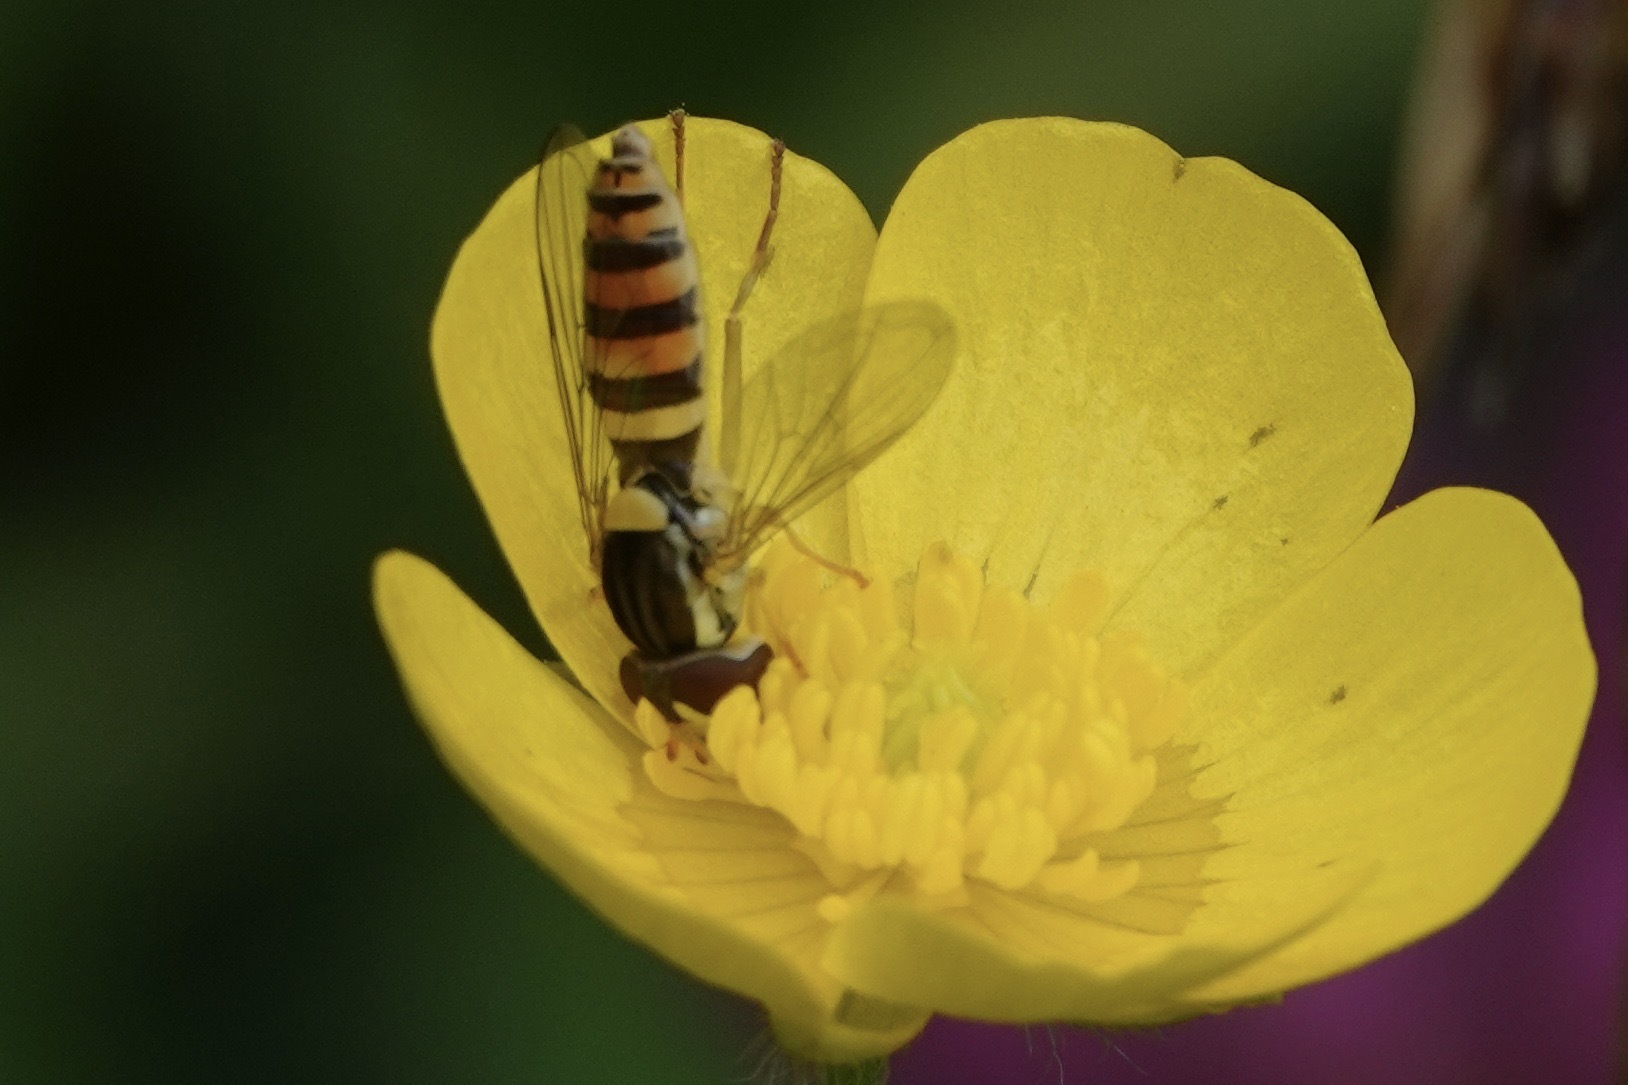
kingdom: Animalia
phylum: Arthropoda
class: Insecta
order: Diptera
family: Syrphidae
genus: Sphaerophoria
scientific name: Sphaerophoria
